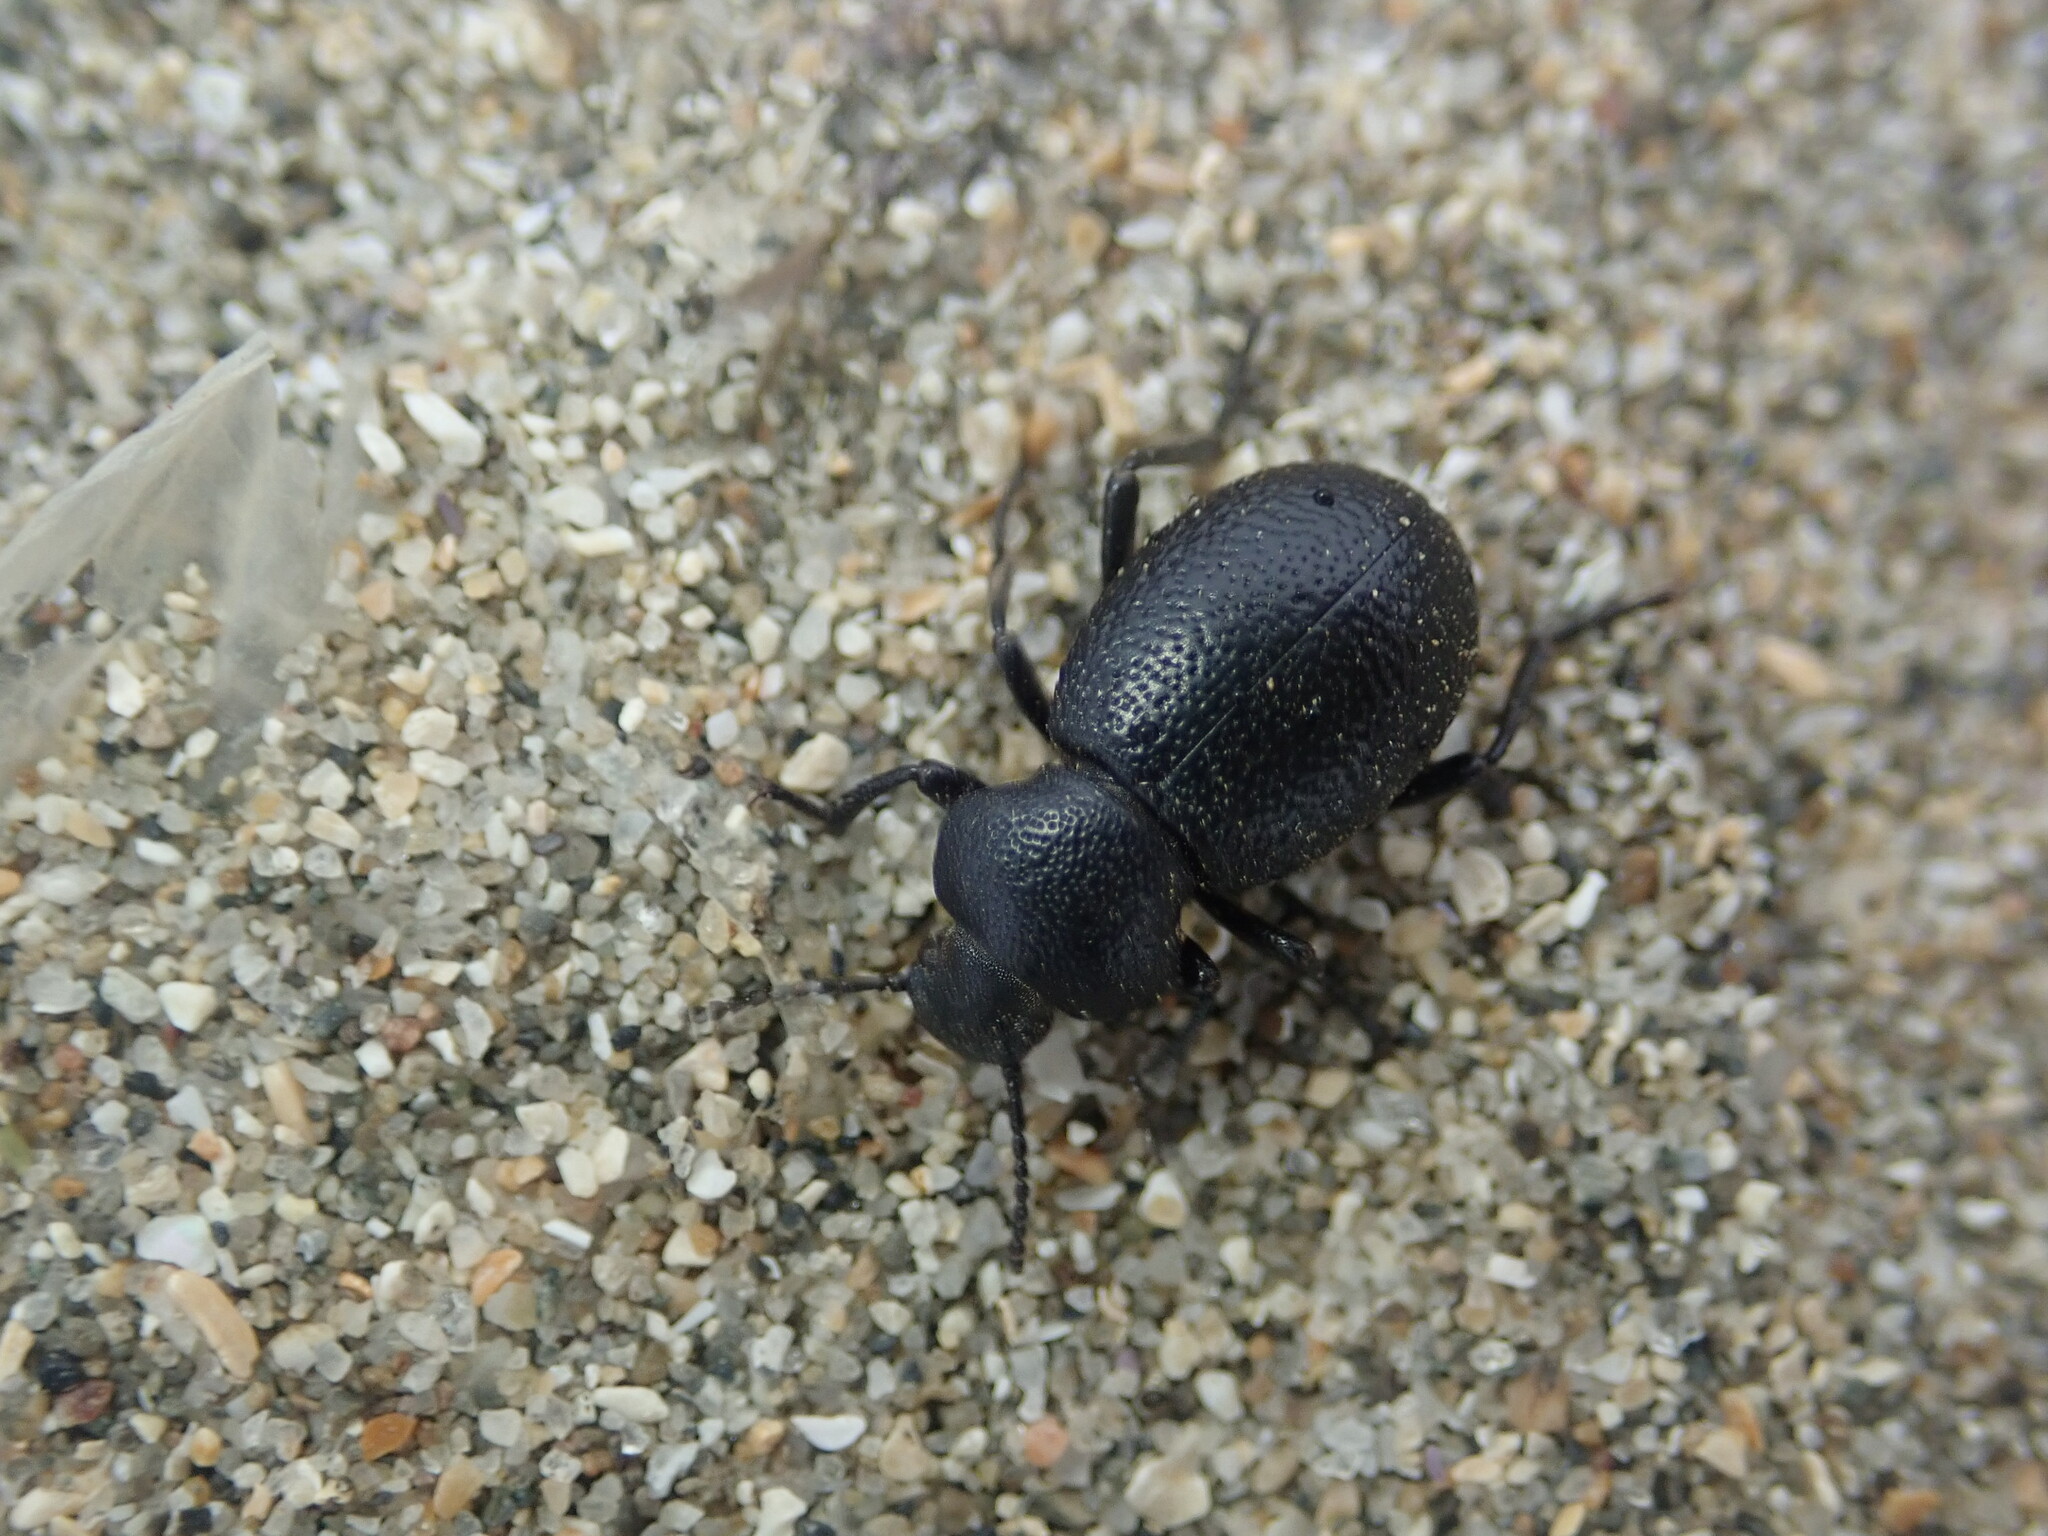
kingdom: Animalia
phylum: Arthropoda
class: Insecta
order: Coleoptera
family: Tenebrionidae
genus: Eleodes
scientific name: Eleodes cordata
